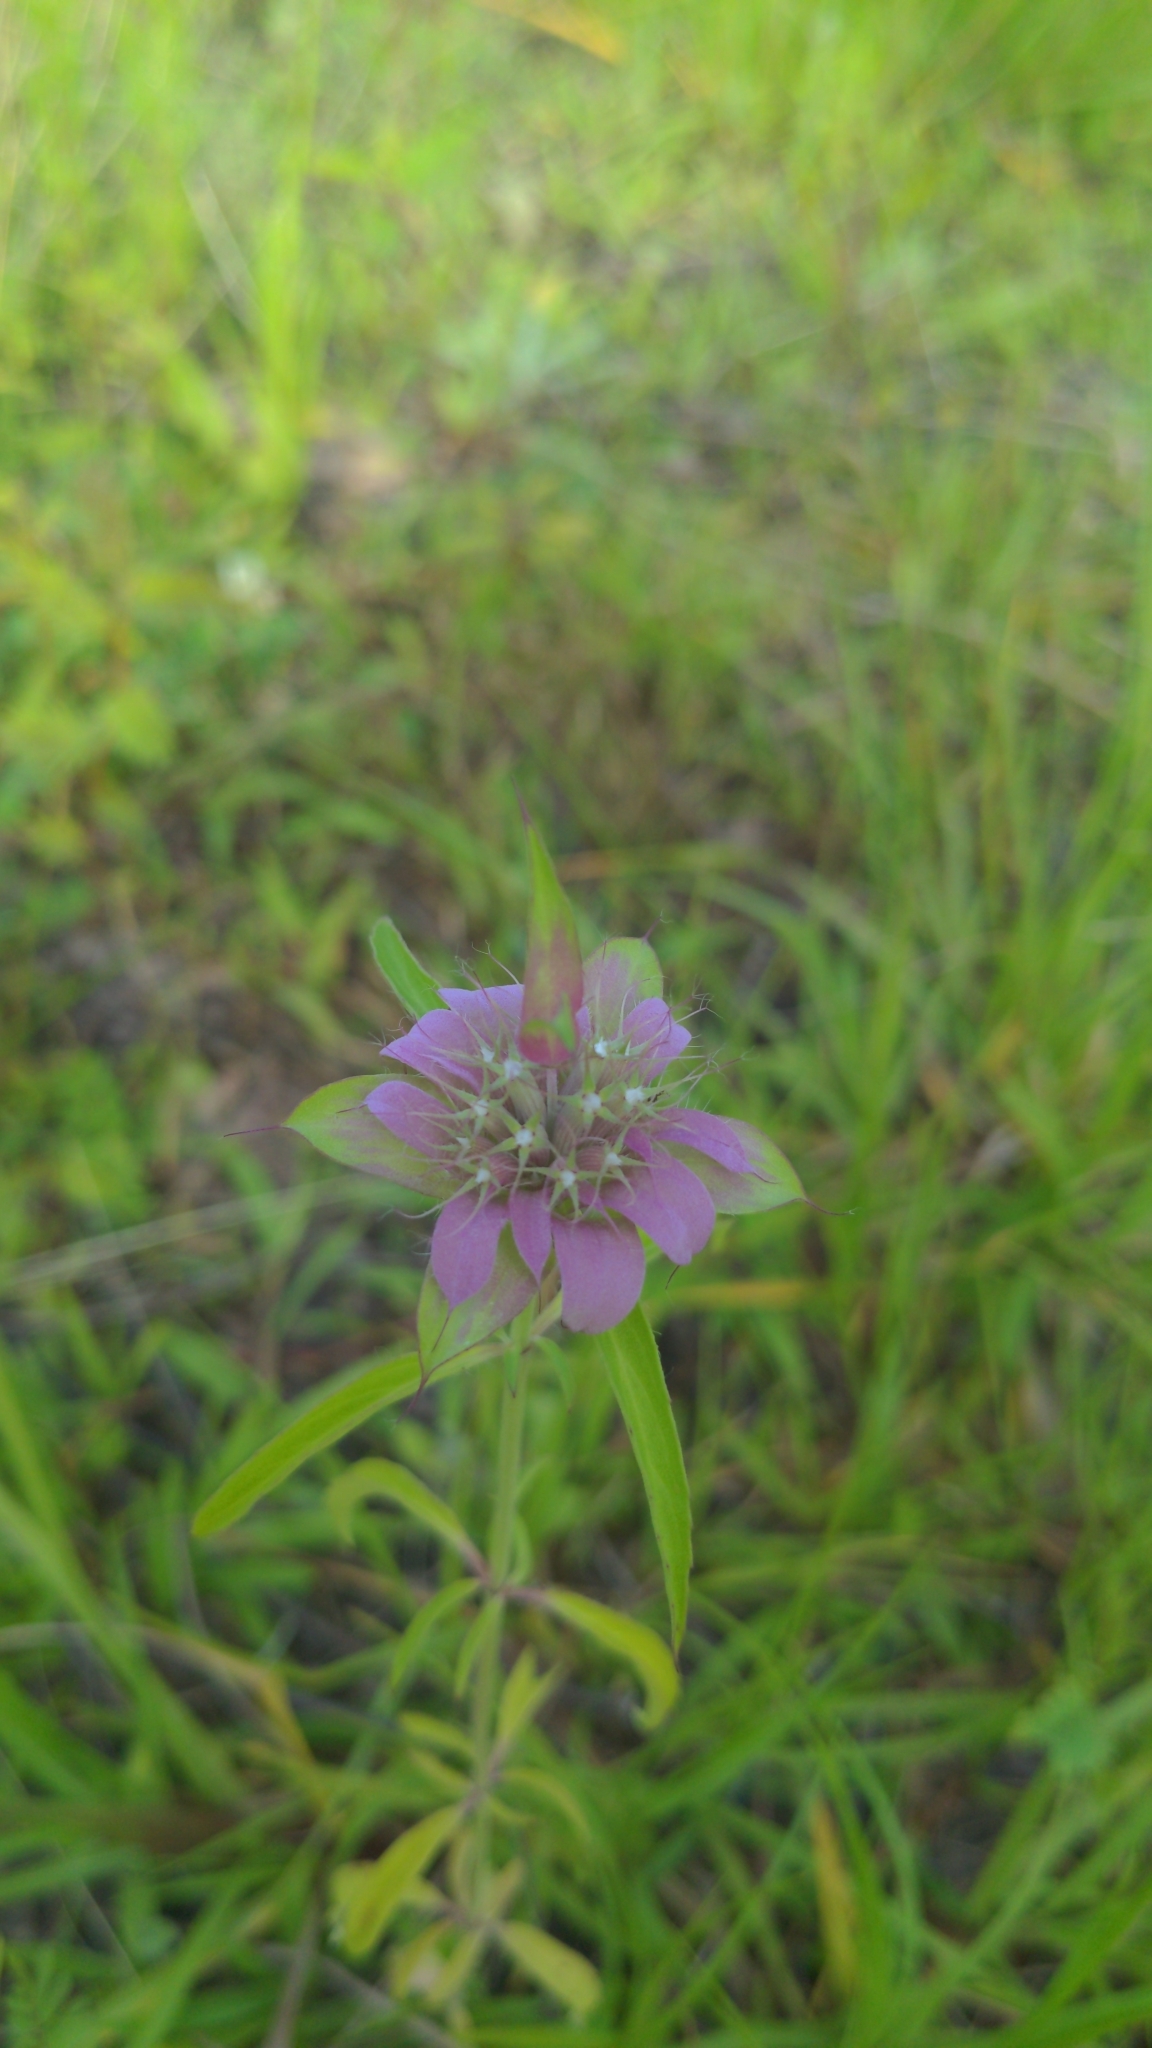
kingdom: Plantae
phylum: Tracheophyta
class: Magnoliopsida
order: Lamiales
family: Lamiaceae
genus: Monarda
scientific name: Monarda citriodora
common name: Lemon beebalm
